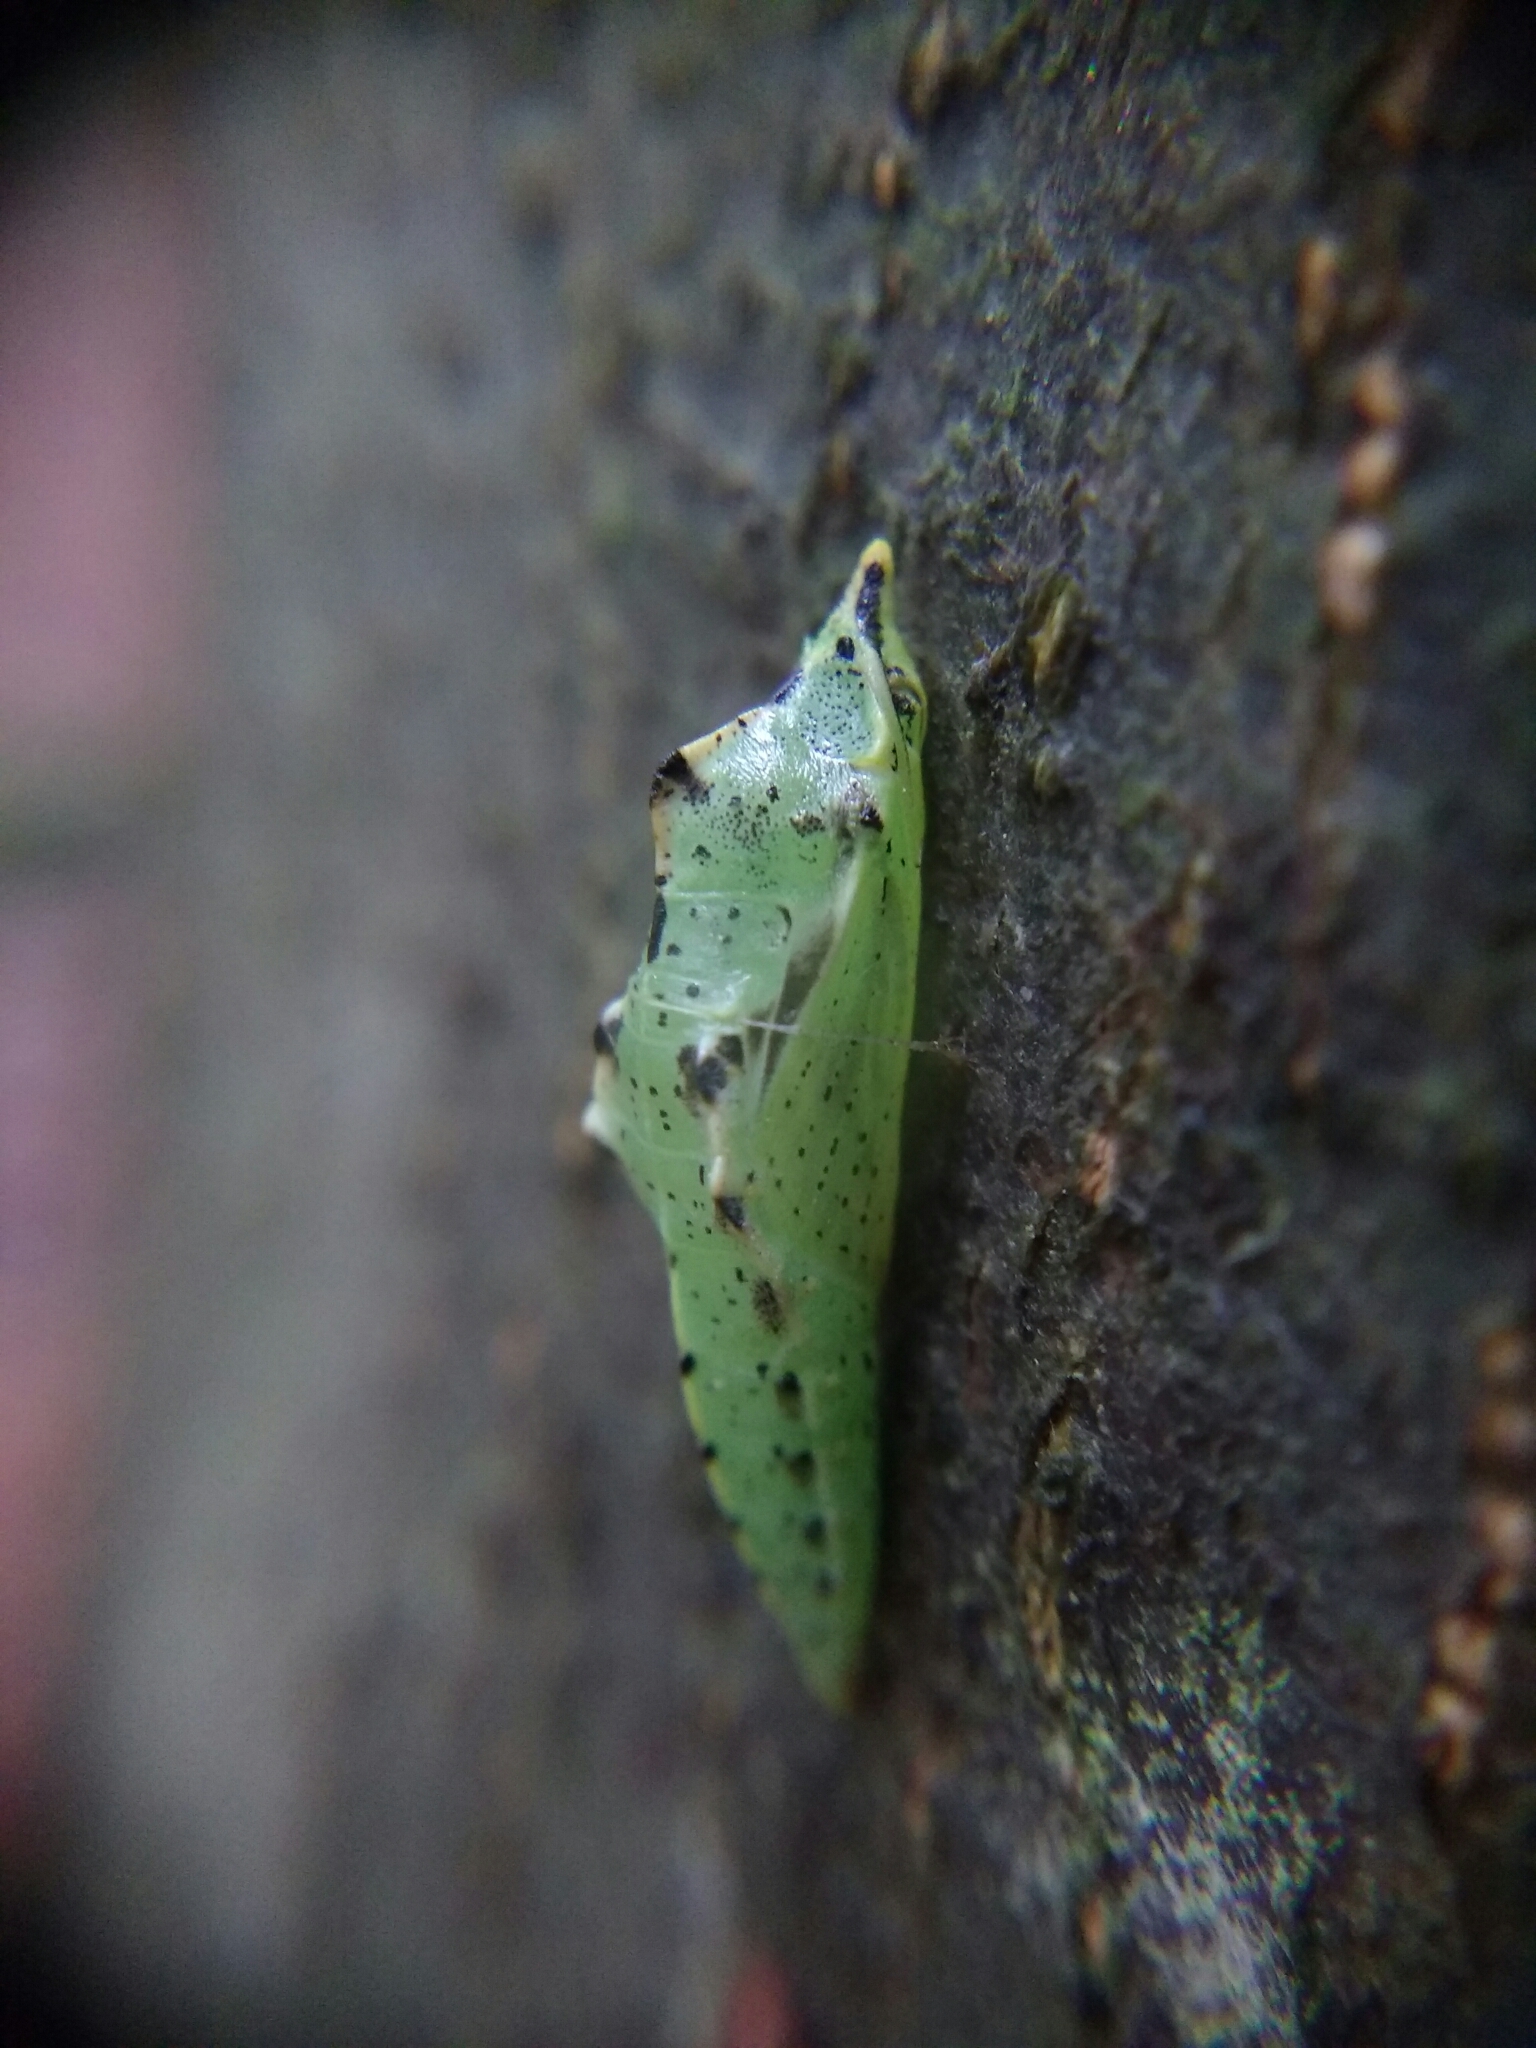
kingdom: Animalia
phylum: Arthropoda
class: Insecta
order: Lepidoptera
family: Pieridae
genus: Pieris
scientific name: Pieris napi
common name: Green-veined white
